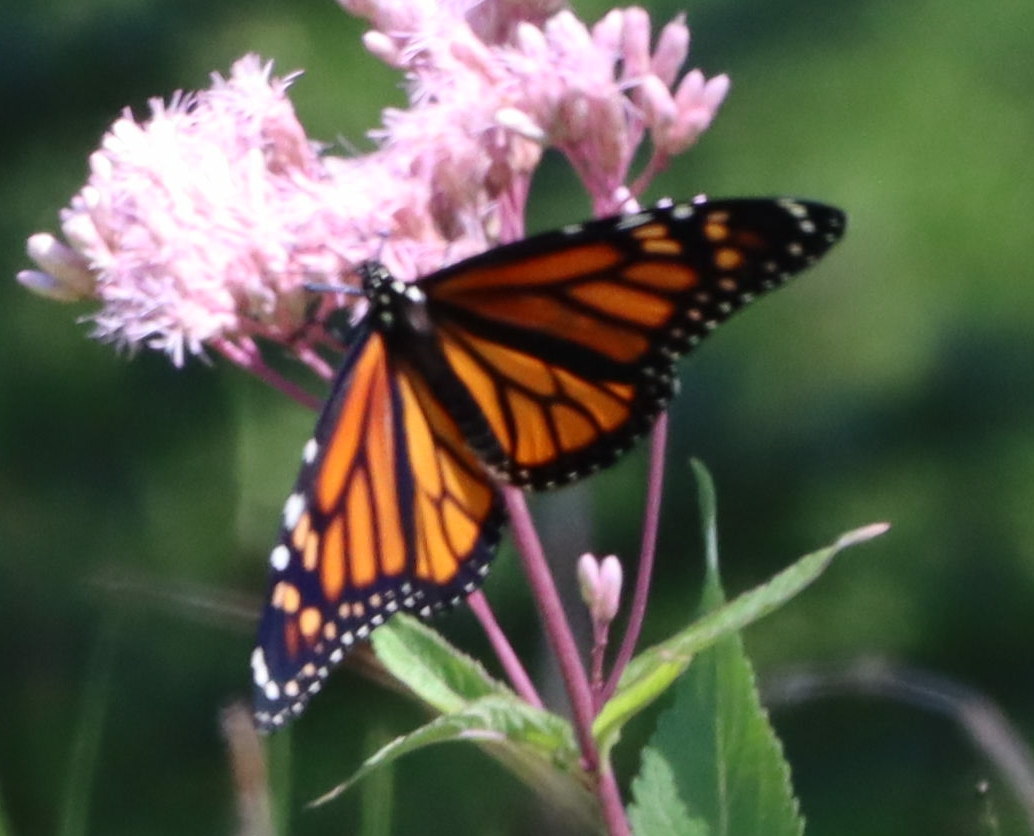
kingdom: Animalia
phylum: Arthropoda
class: Insecta
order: Lepidoptera
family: Nymphalidae
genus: Danaus
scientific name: Danaus plexippus
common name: Monarch
